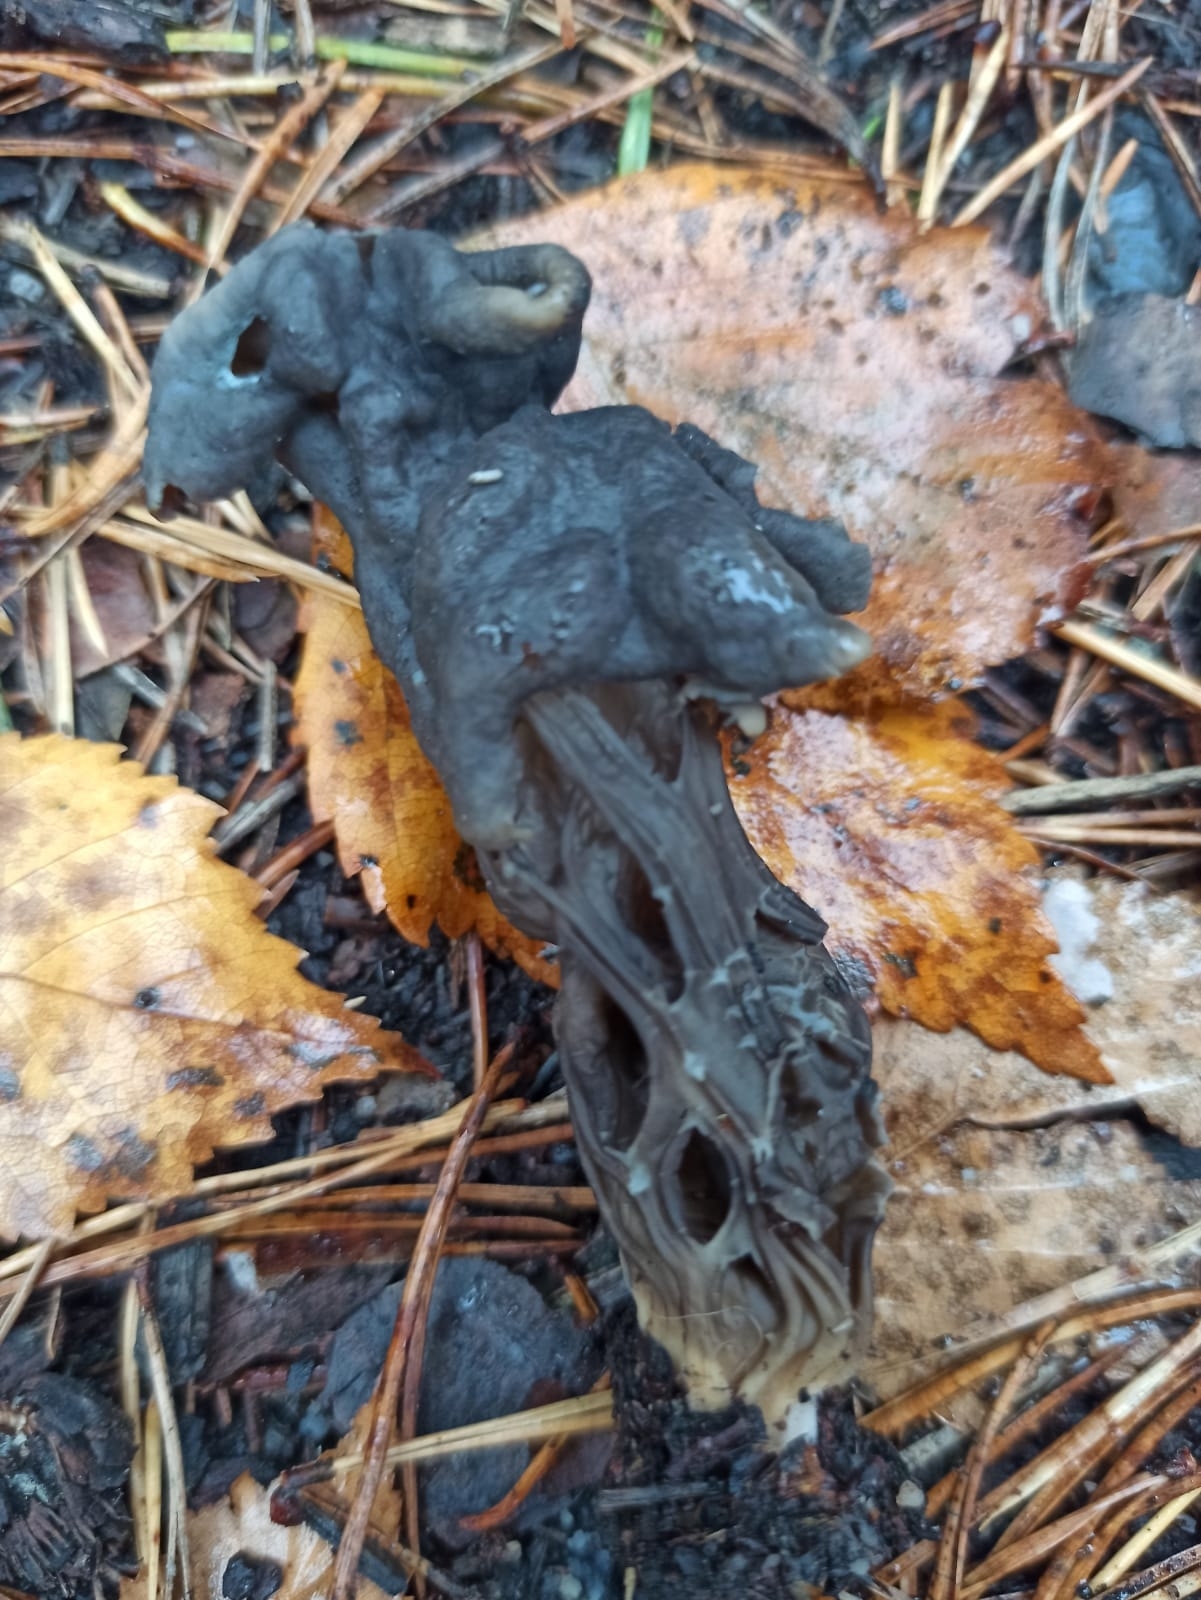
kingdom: Fungi
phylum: Ascomycota
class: Pezizomycetes
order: Pezizales
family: Helvellaceae
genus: Helvella
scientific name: Helvella lacunosa
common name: Elfin saddle
